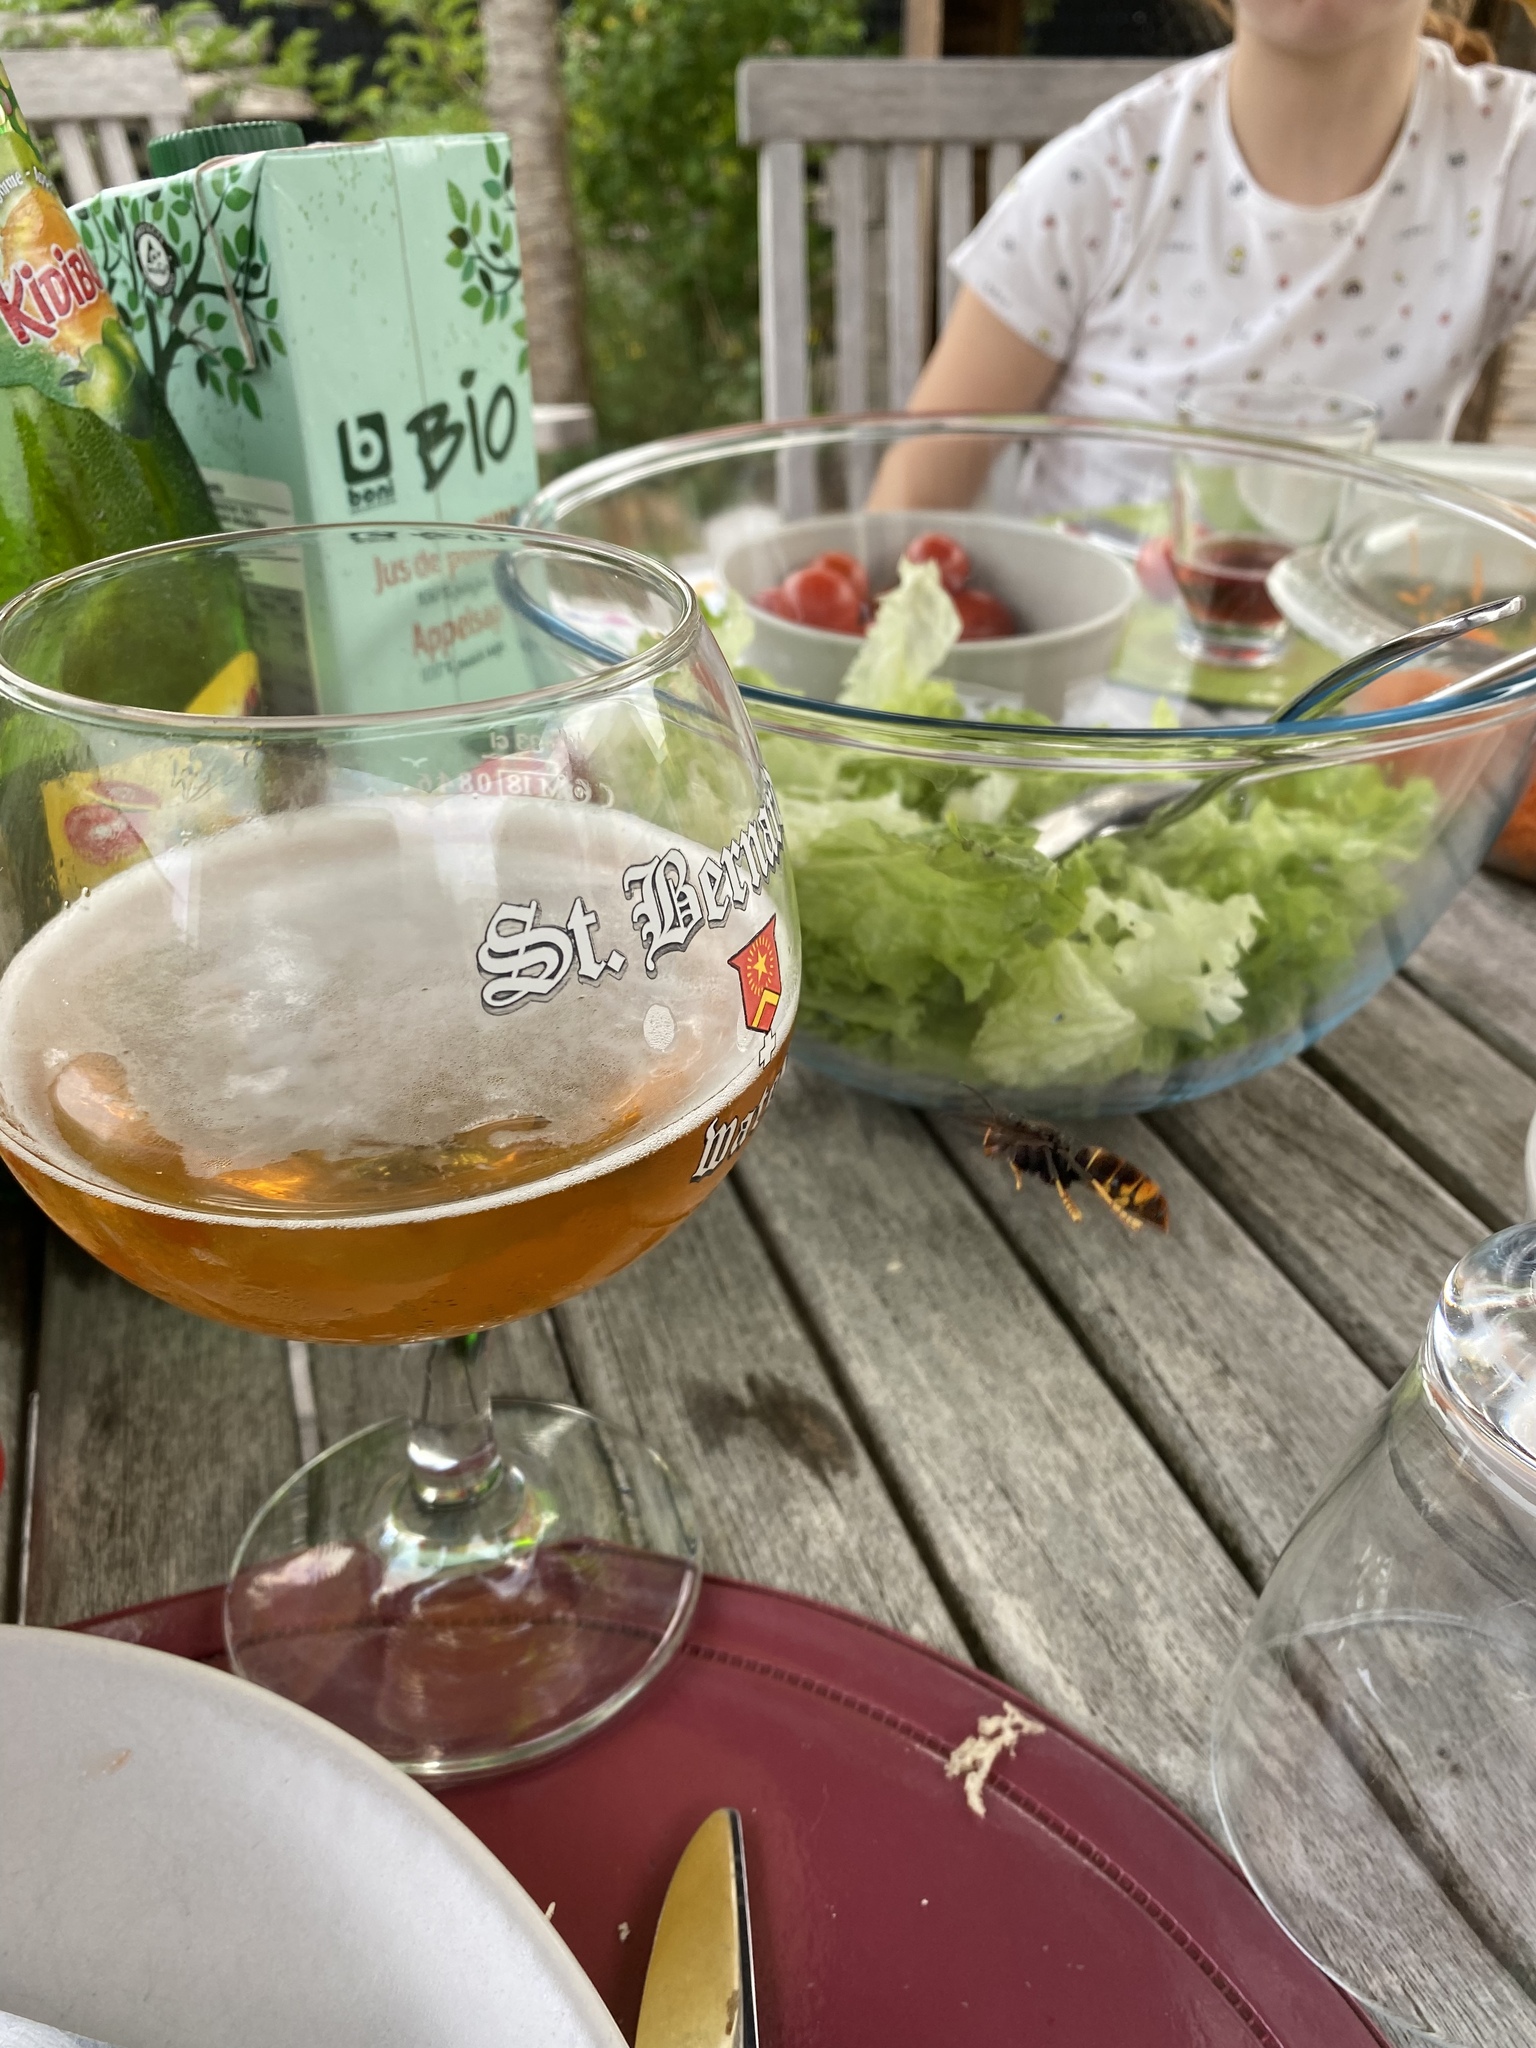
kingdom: Animalia
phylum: Arthropoda
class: Insecta
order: Hymenoptera
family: Vespidae
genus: Vespa
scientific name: Vespa velutina
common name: Asian hornet
